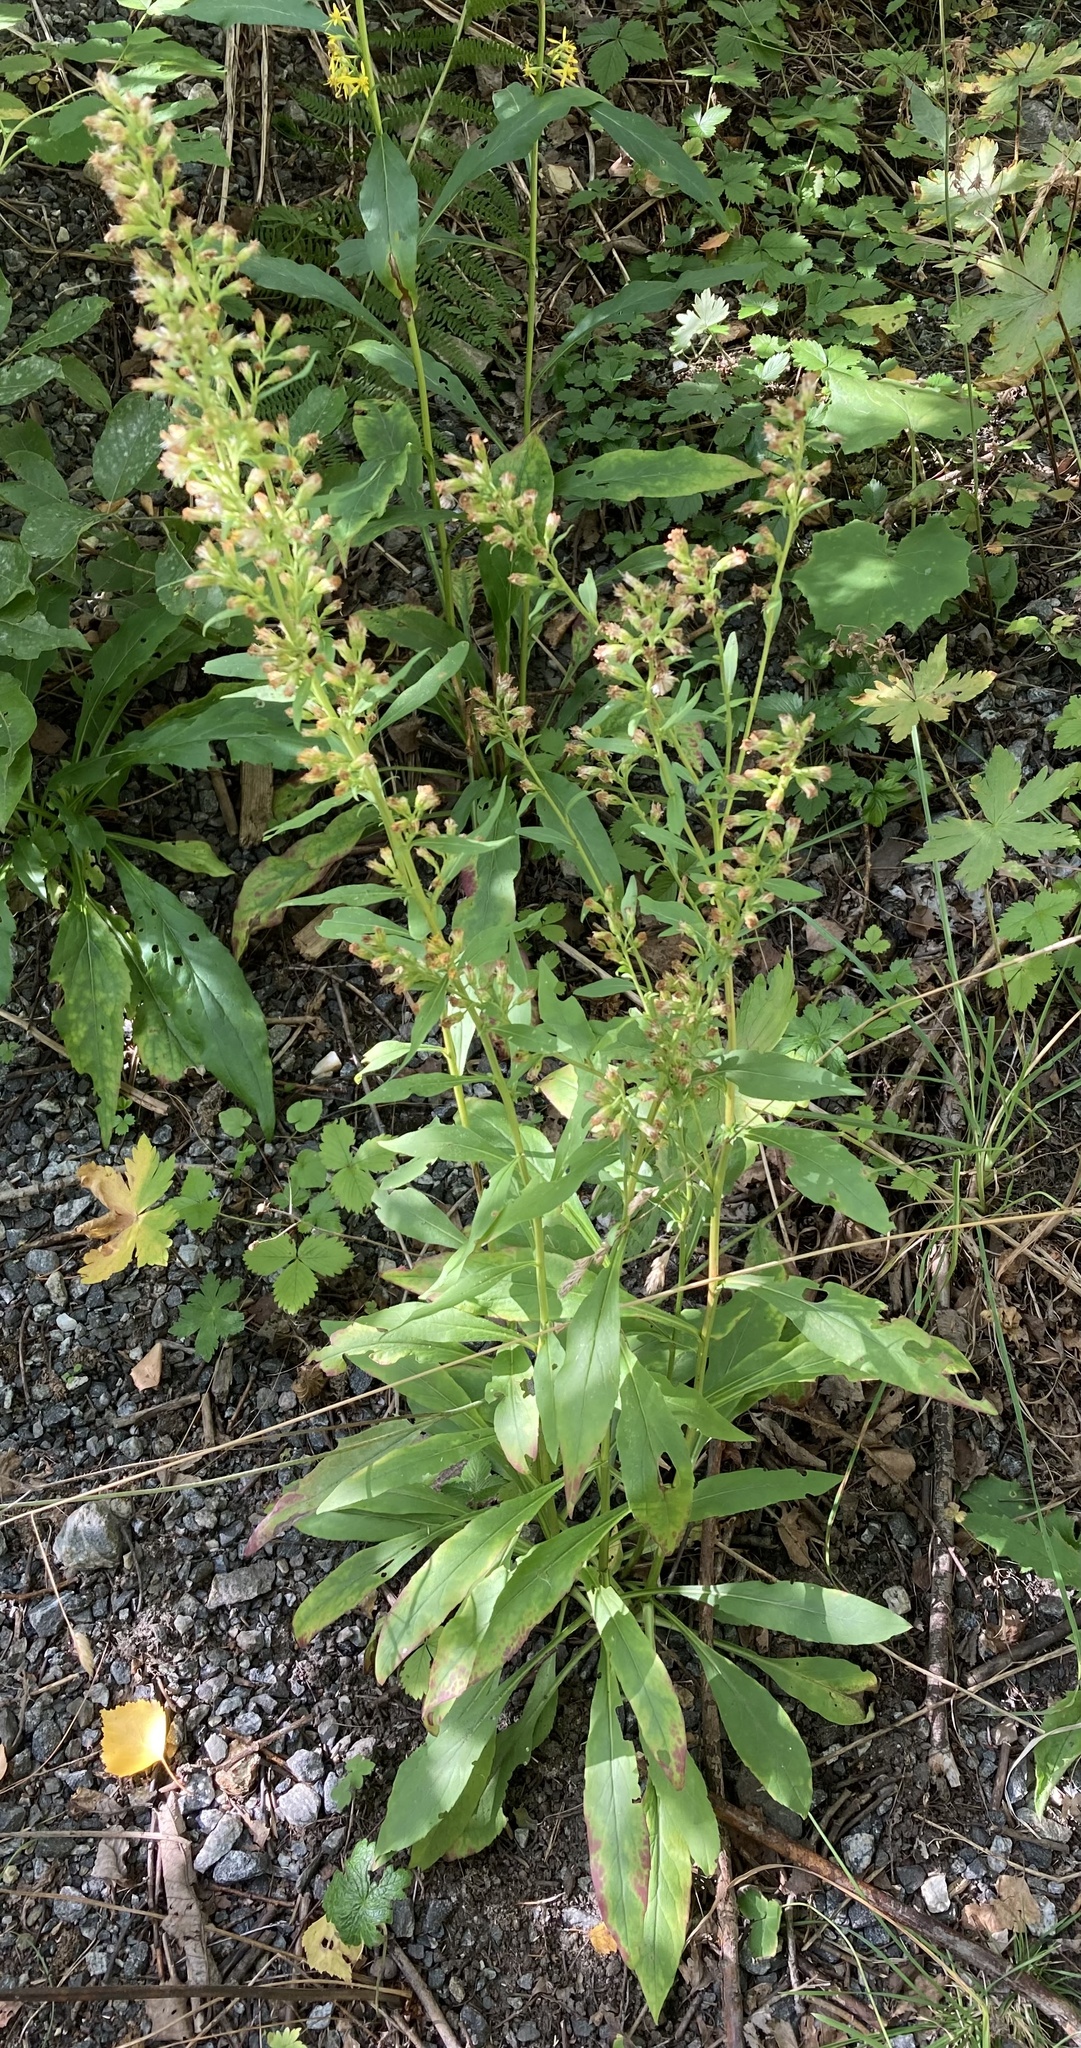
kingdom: Plantae
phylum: Tracheophyta
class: Magnoliopsida
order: Asterales
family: Asteraceae
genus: Solidago
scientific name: Solidago virgaurea
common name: Goldenrod
